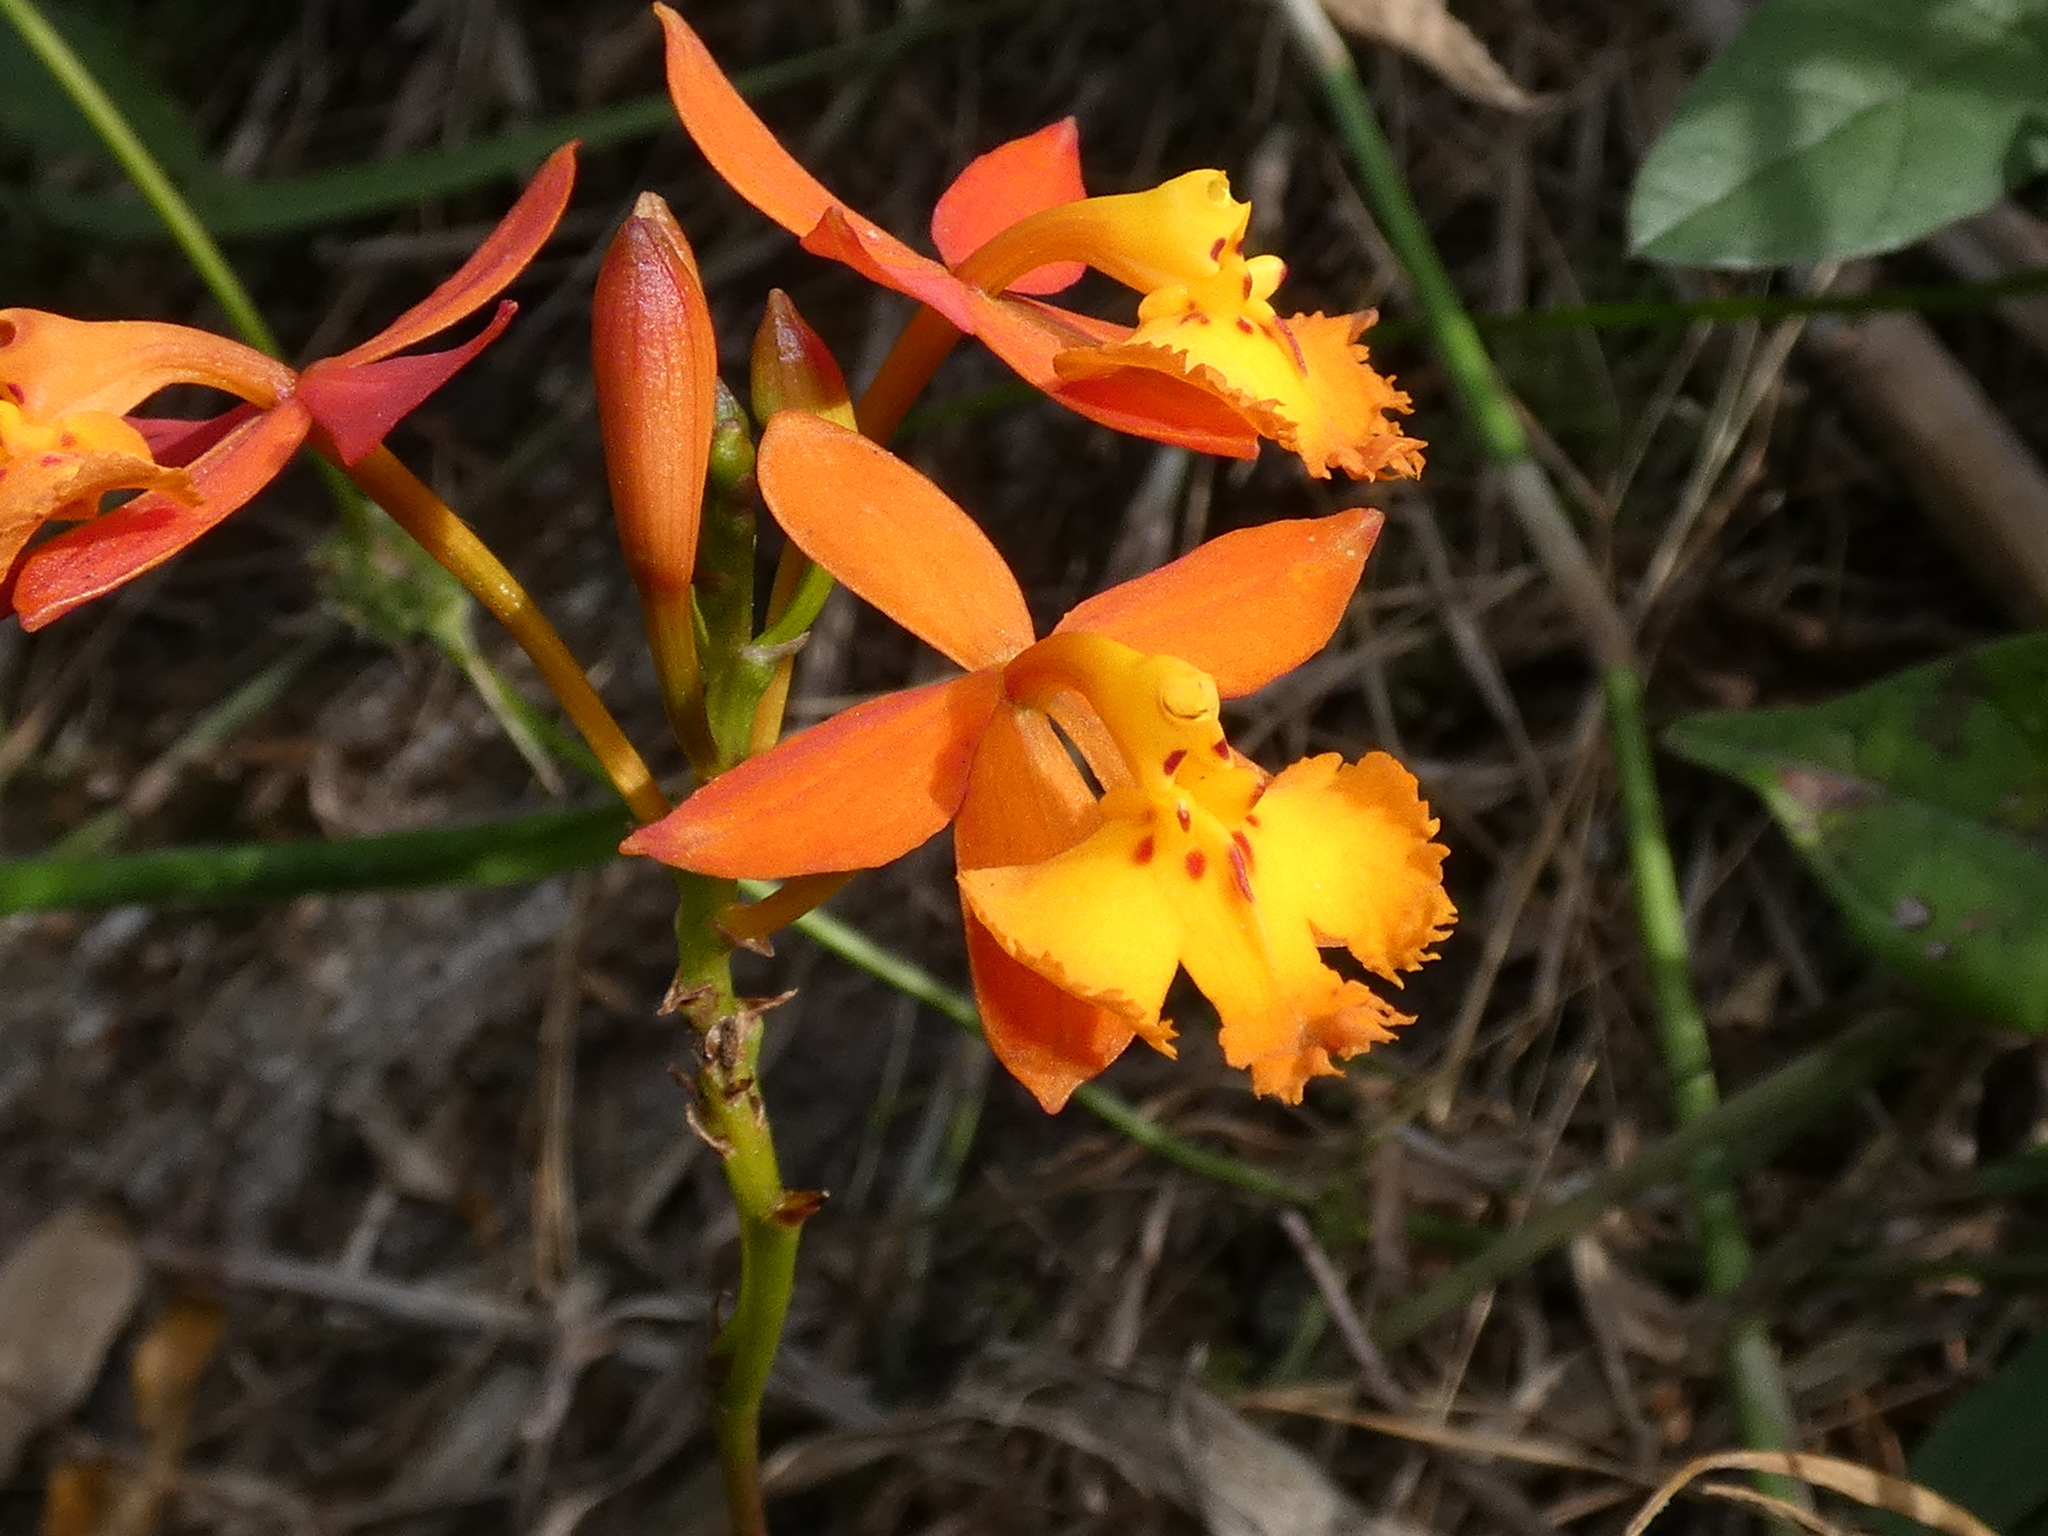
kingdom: Plantae
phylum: Tracheophyta
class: Liliopsida
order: Asparagales
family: Orchidaceae
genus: Epidendrum
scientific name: Epidendrum radicans
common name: Fire star orchid
